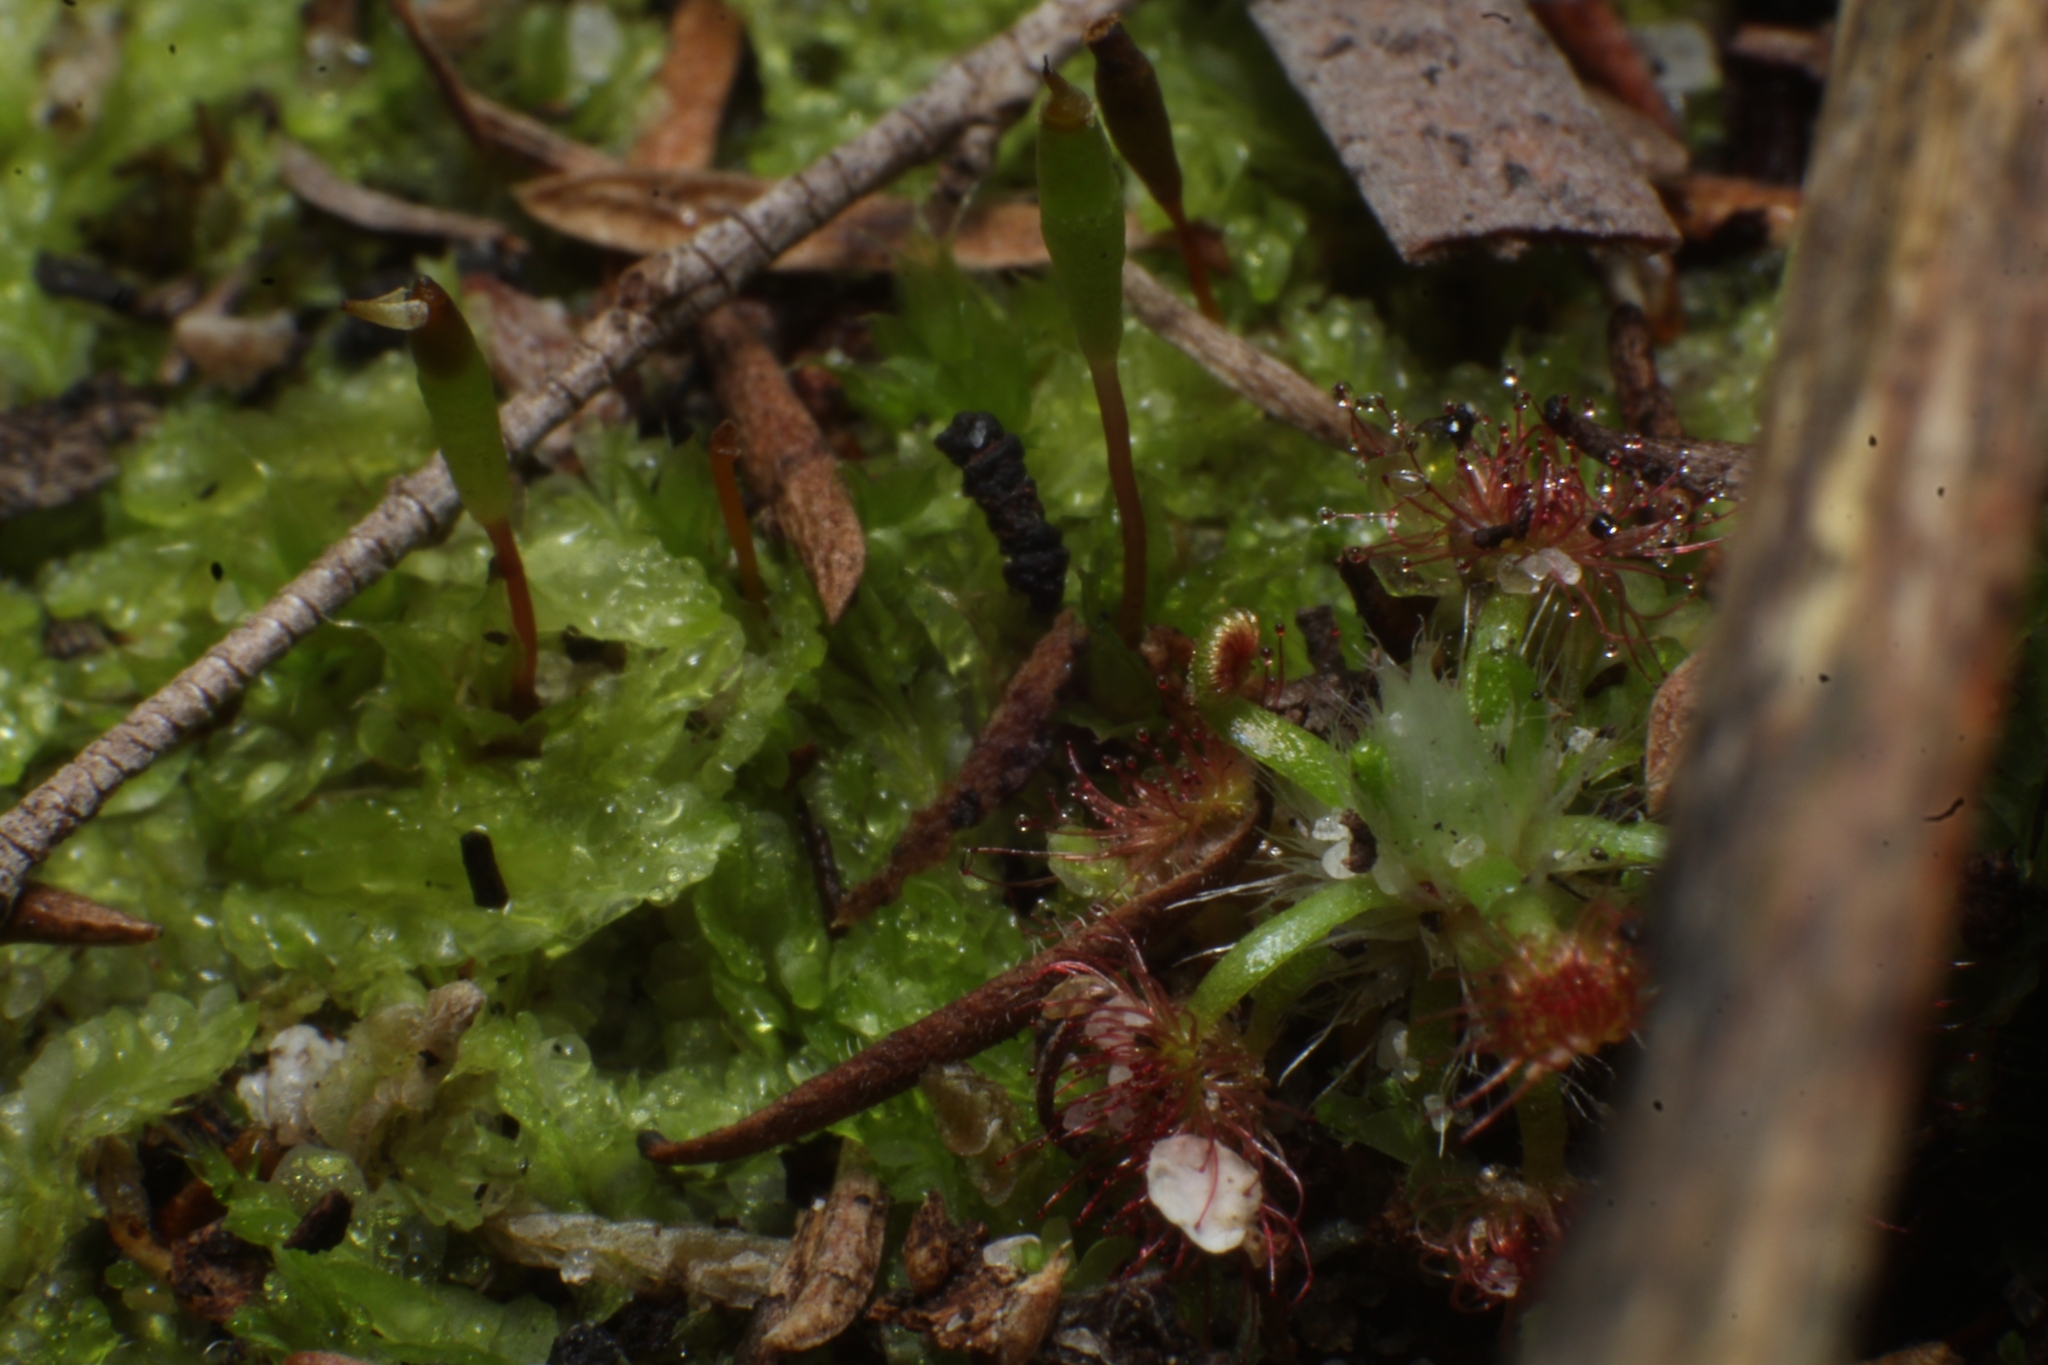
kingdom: Plantae
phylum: Bryophyta
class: Bryopsida
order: Splachnales
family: Splachnaceae
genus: Tayloria
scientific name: Tayloria octoblephara
